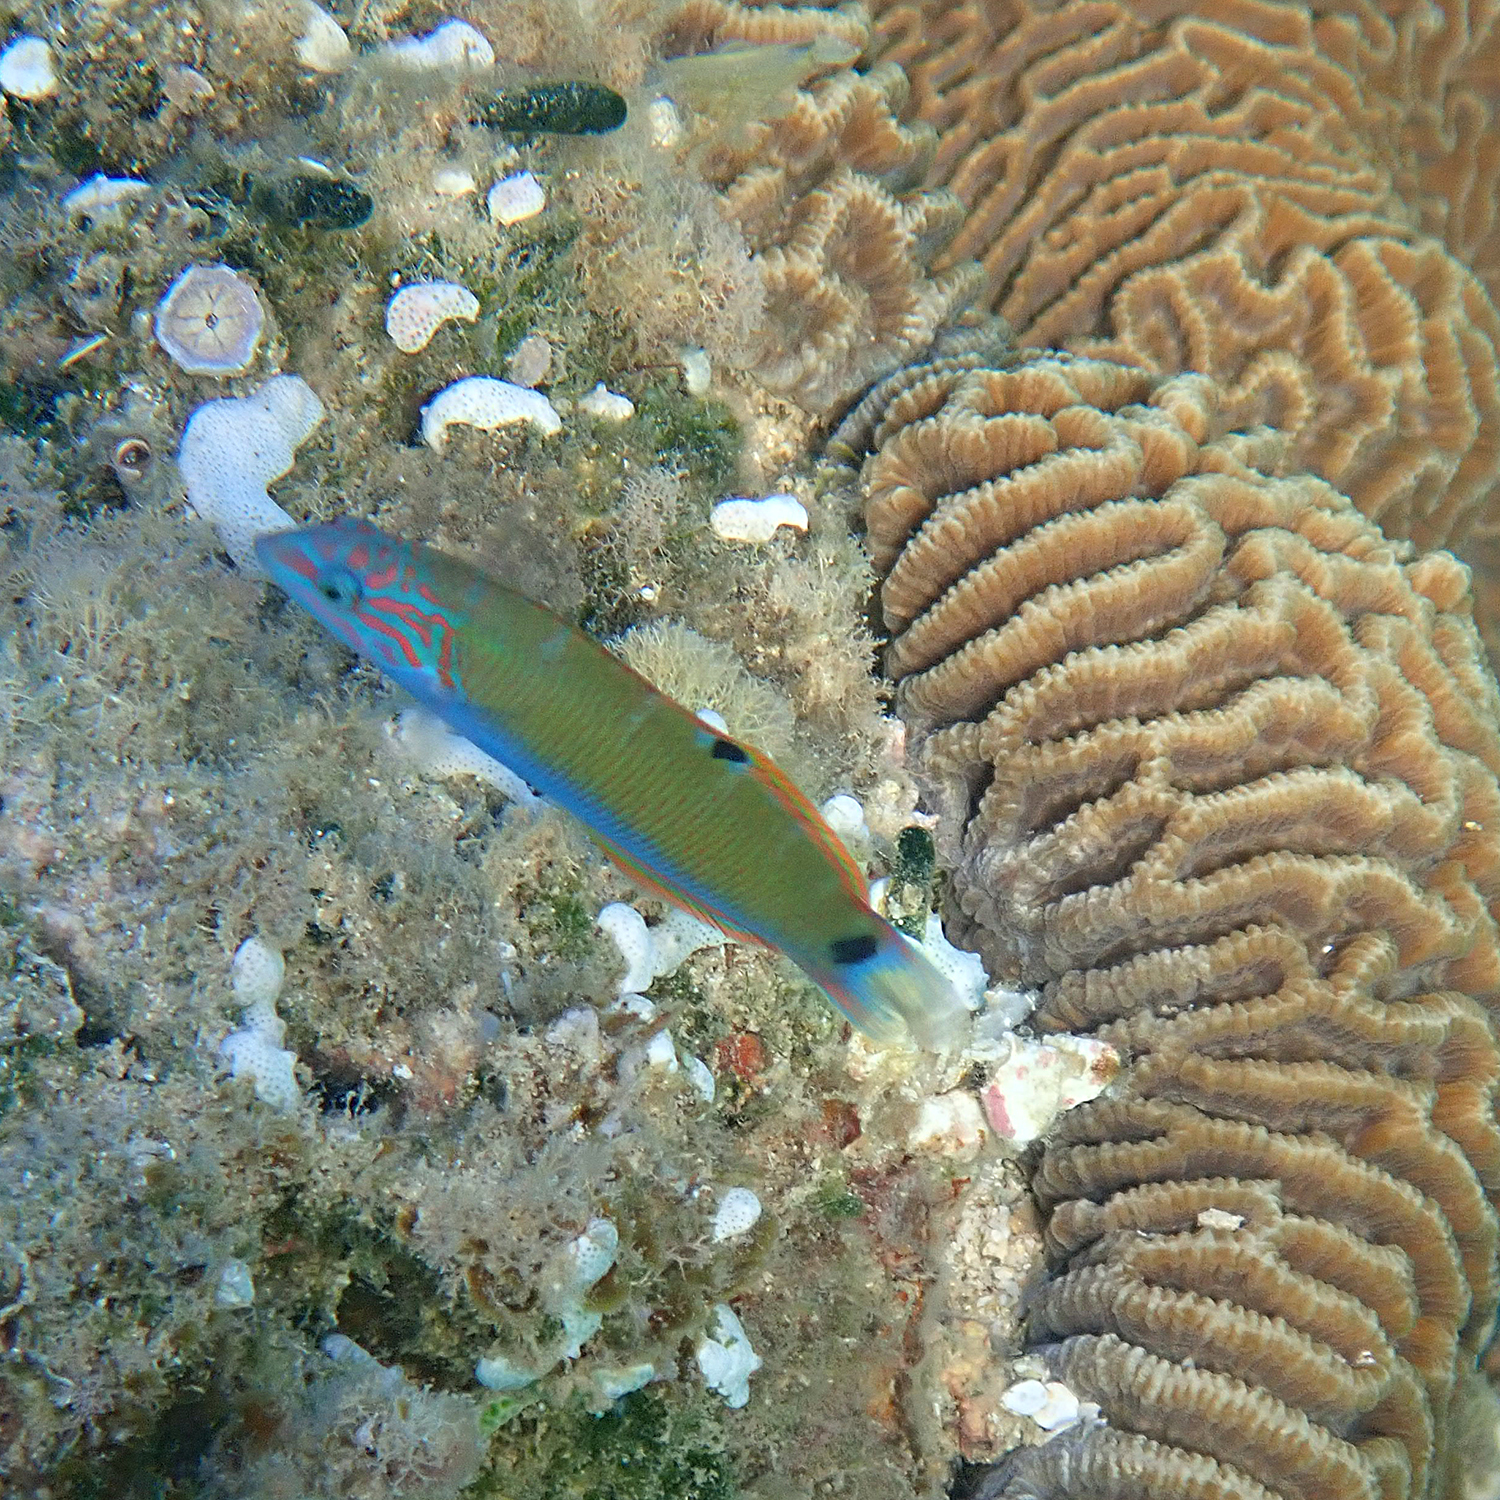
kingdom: Animalia
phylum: Chordata
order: Perciformes
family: Labridae
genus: Thalassoma
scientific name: Thalassoma lunare
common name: Blue wrasse
